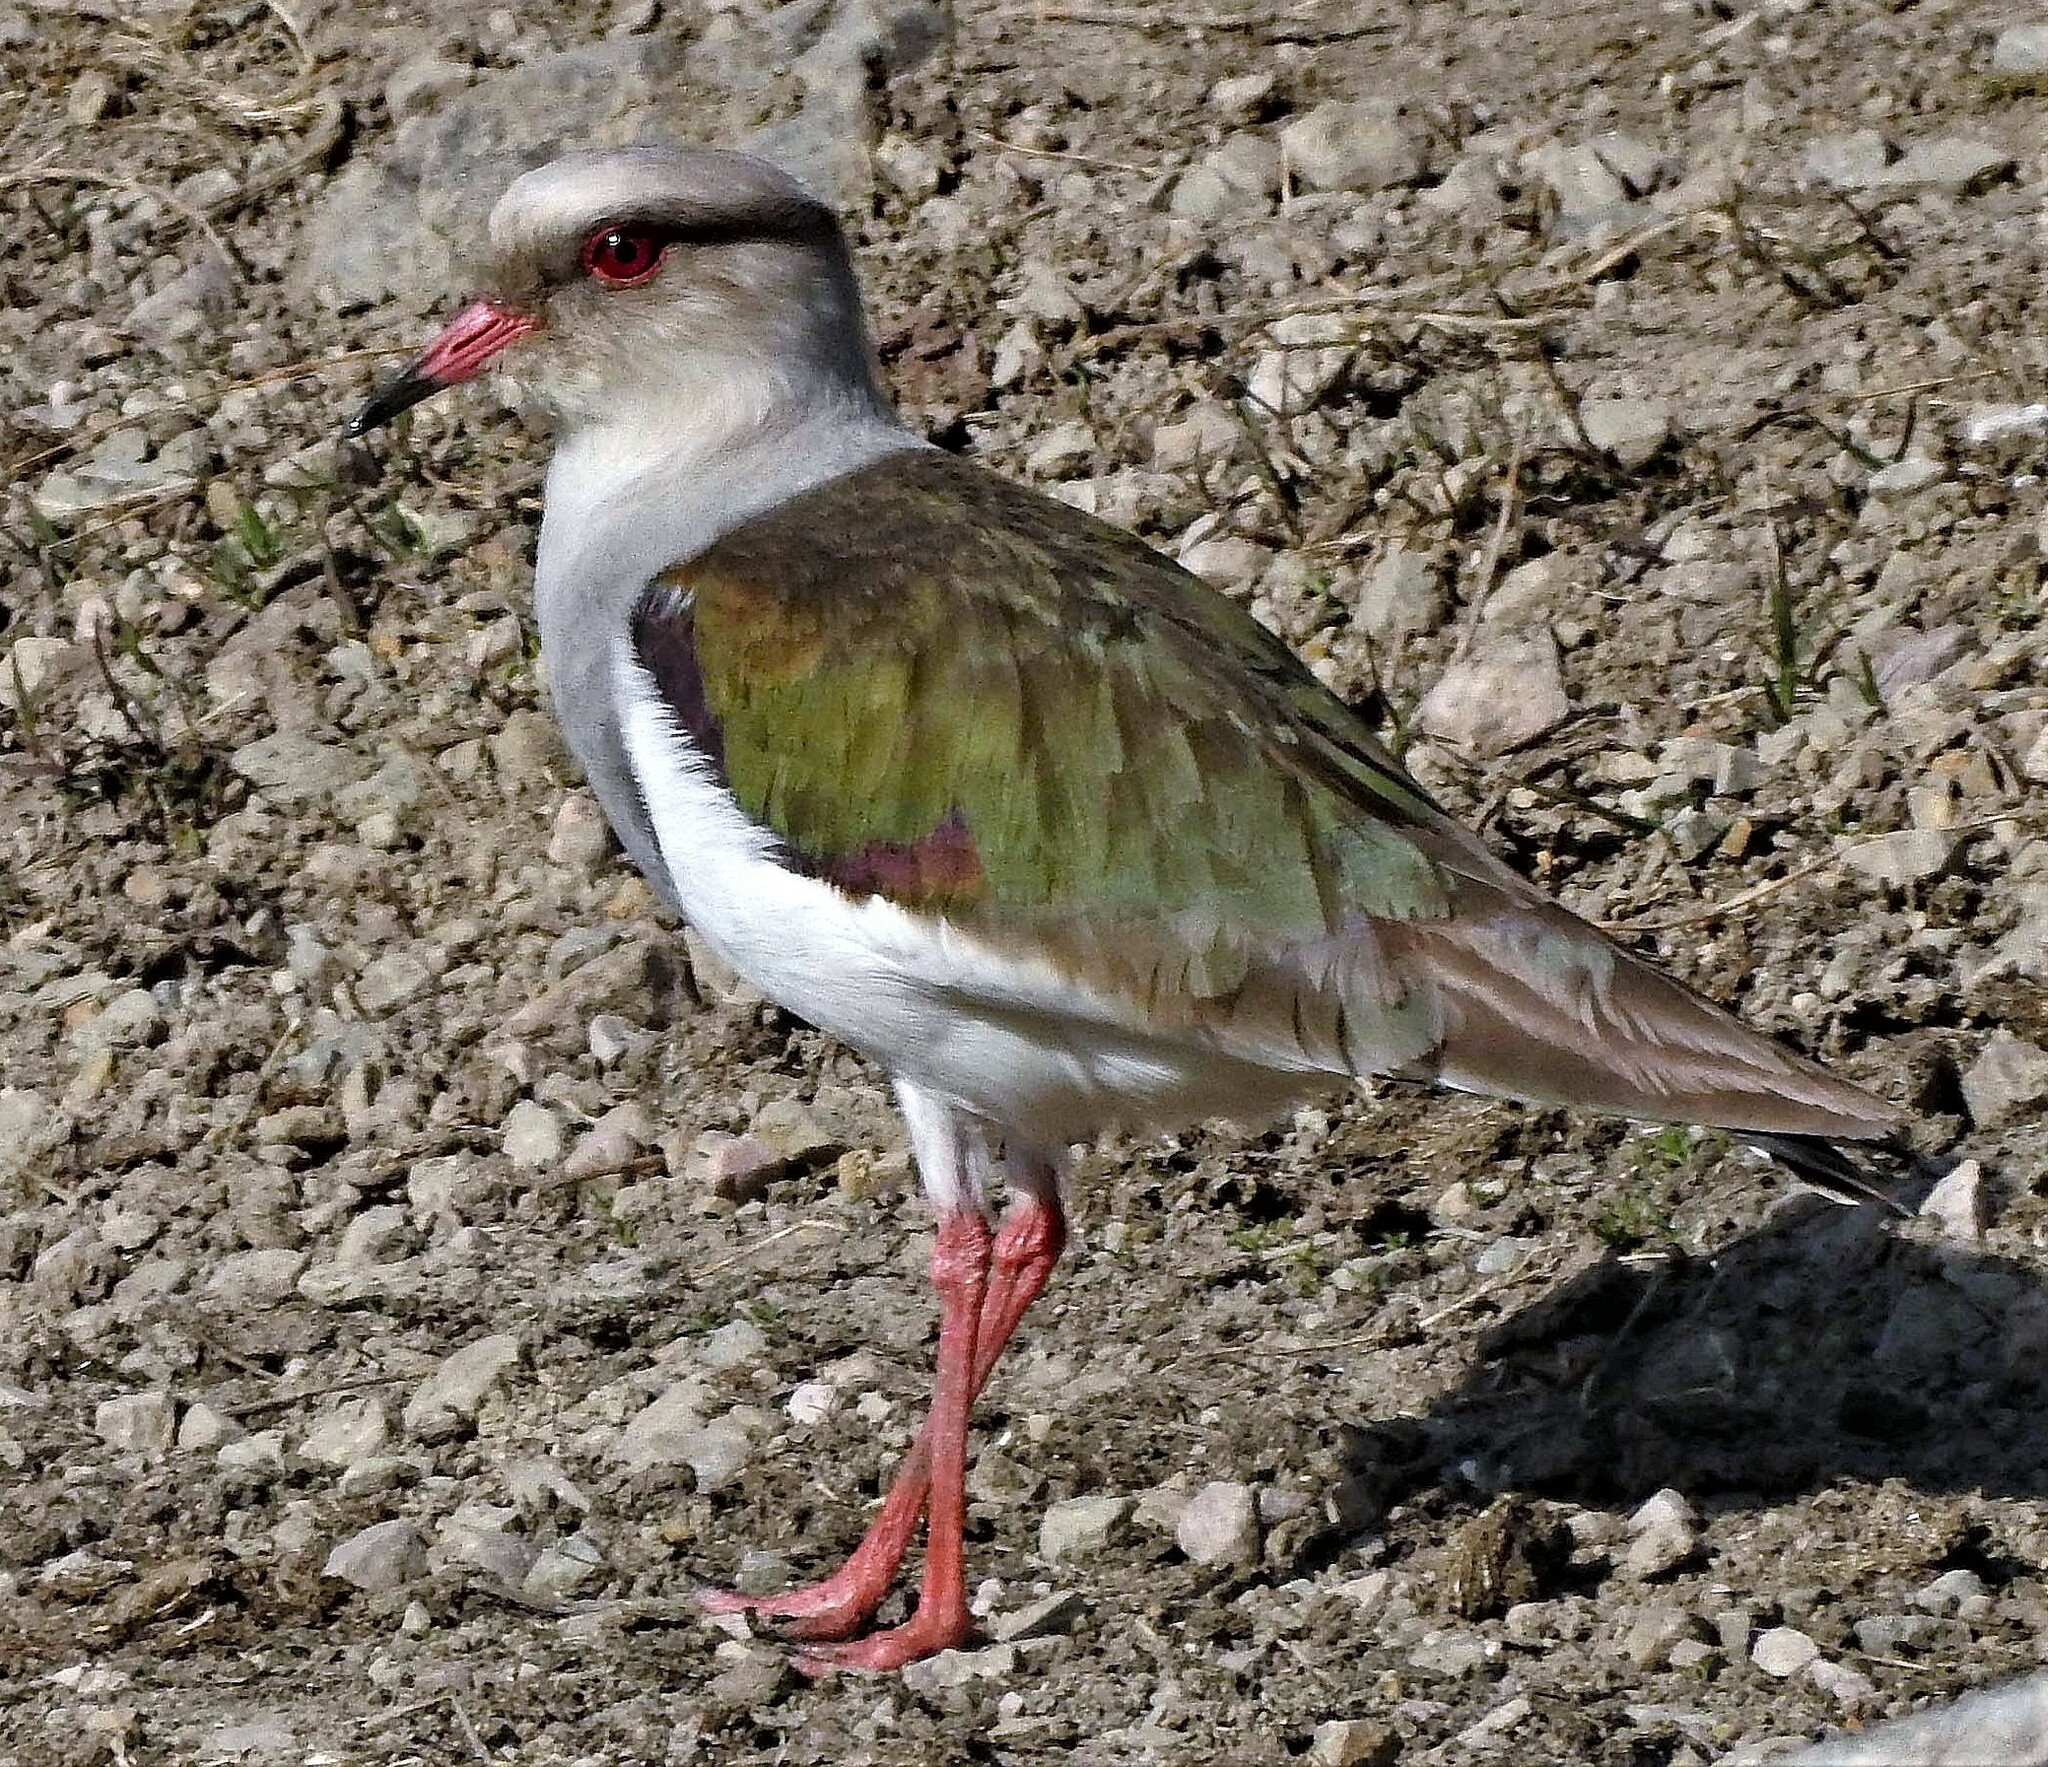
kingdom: Animalia
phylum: Chordata
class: Aves
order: Charadriiformes
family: Charadriidae
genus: Vanellus
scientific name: Vanellus resplendens
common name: Andean lapwing
